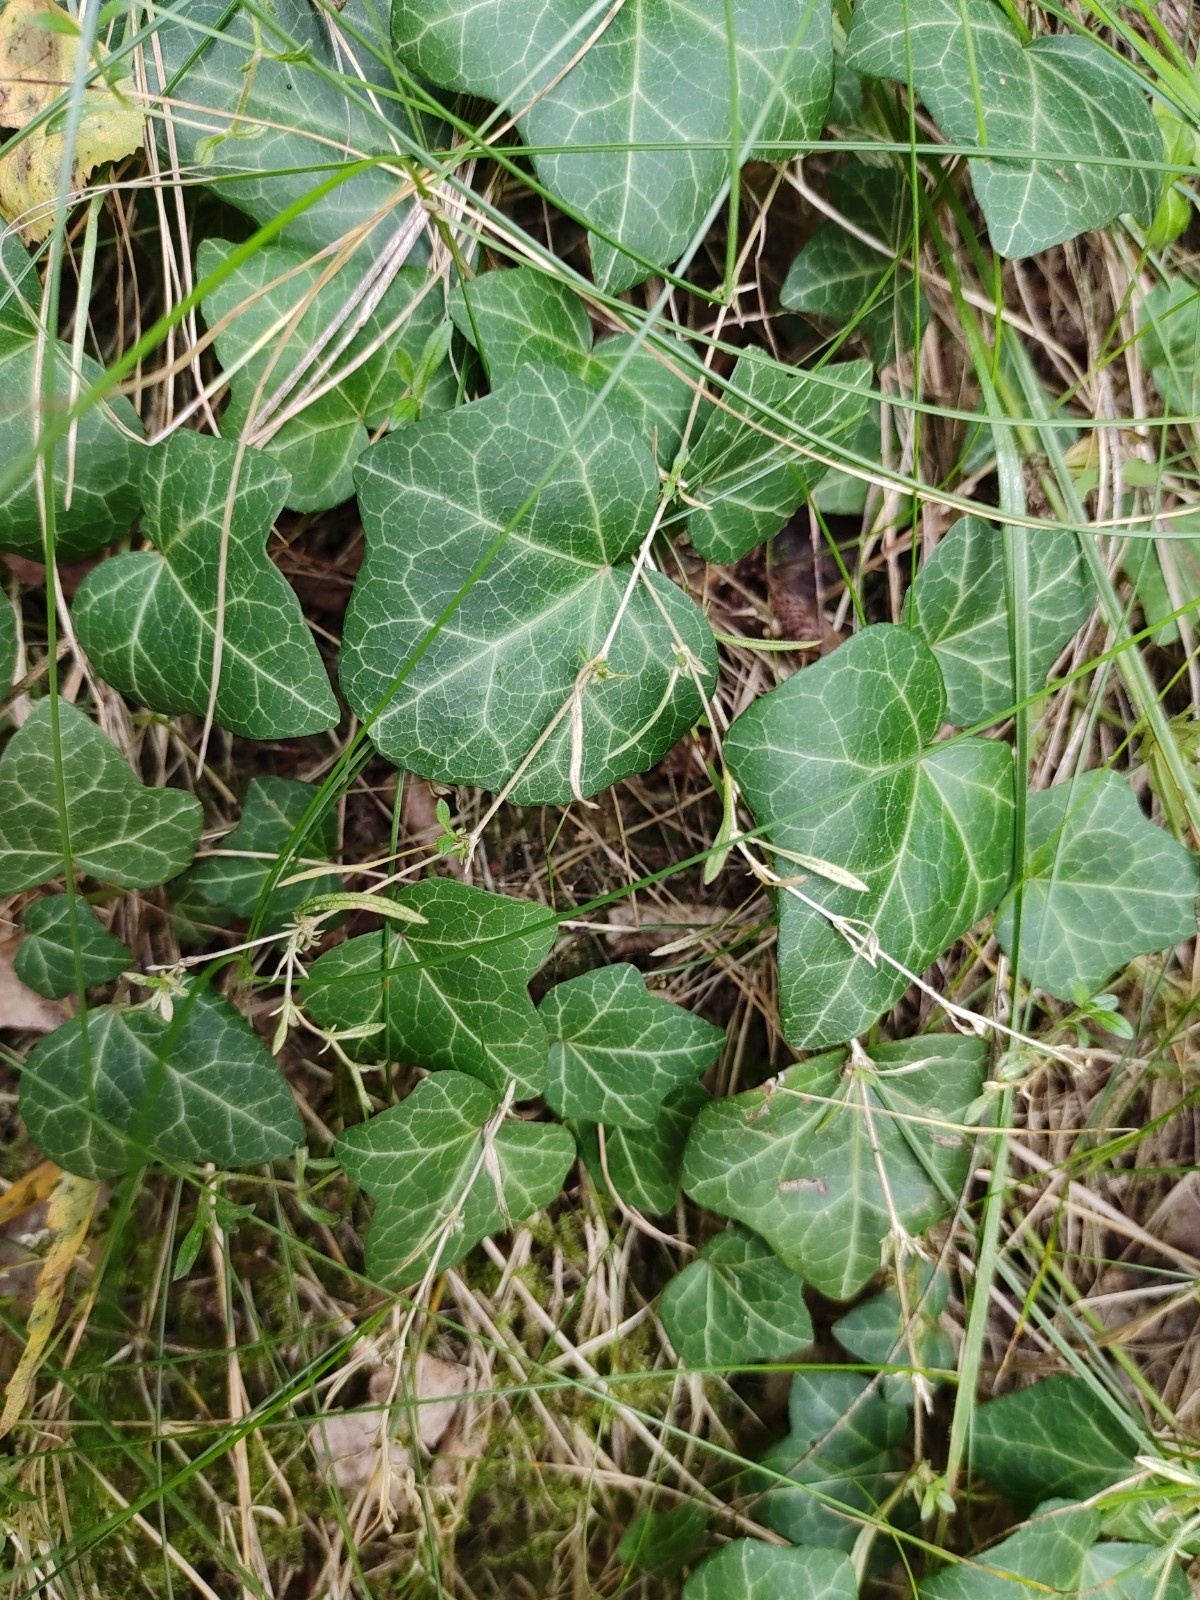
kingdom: Plantae
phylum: Tracheophyta
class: Magnoliopsida
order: Apiales
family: Araliaceae
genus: Hedera
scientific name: Hedera helix
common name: Ivy
